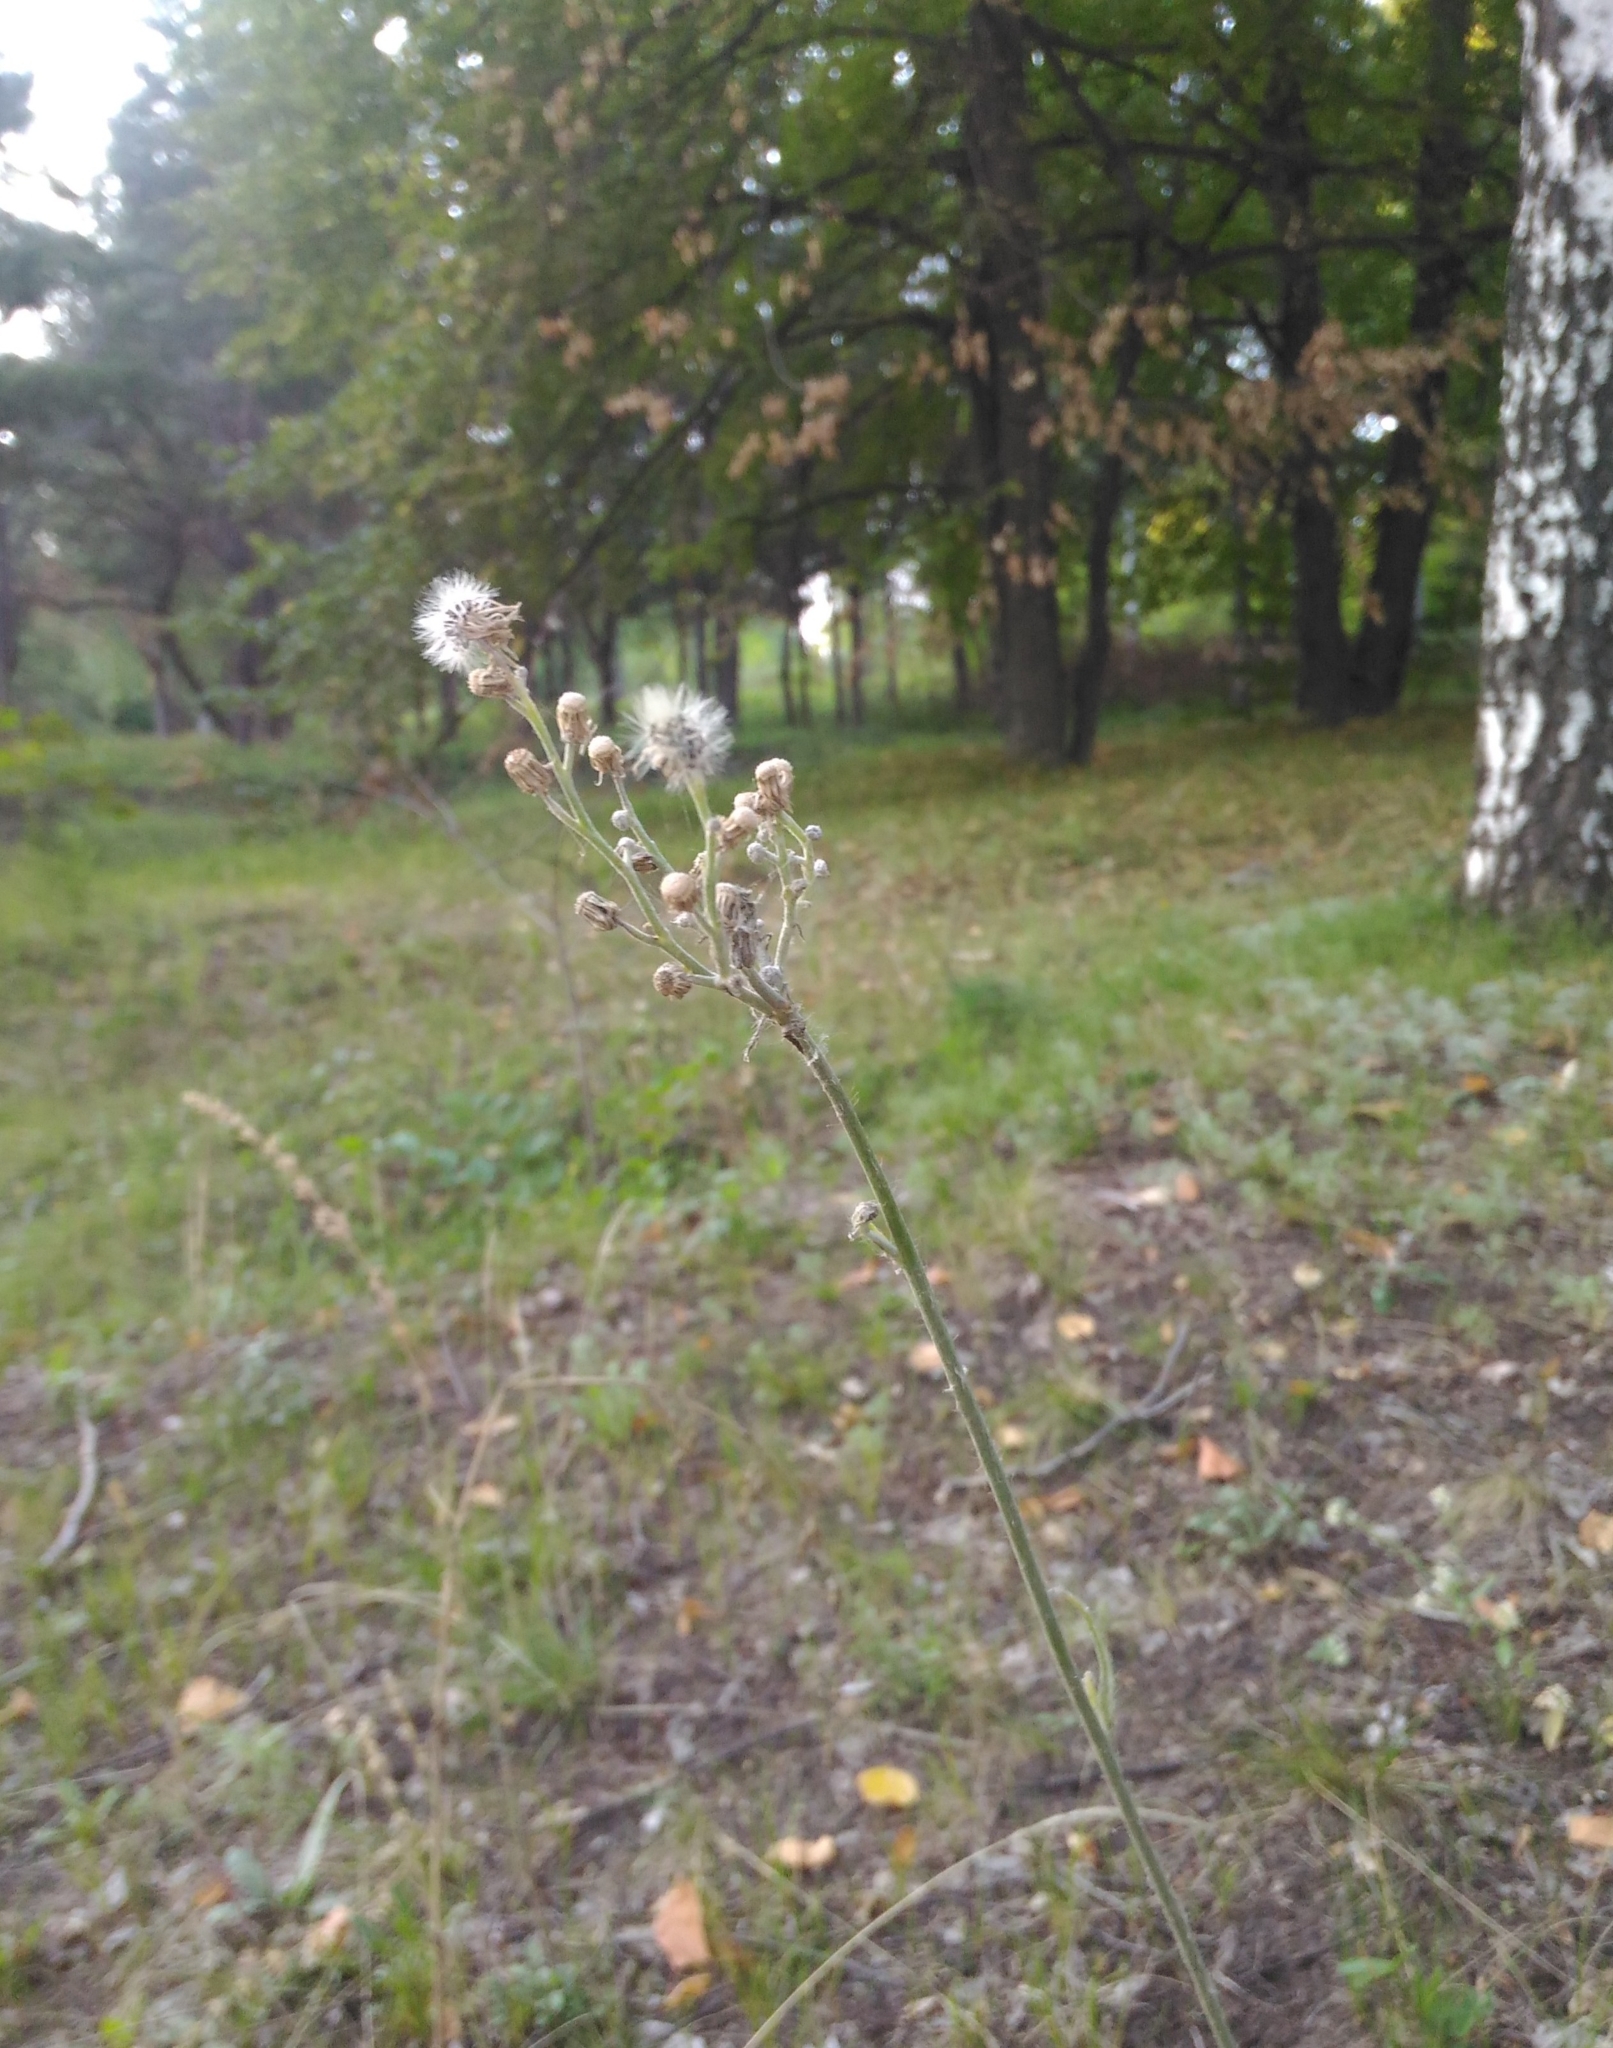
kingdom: Plantae
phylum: Tracheophyta
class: Magnoliopsida
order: Asterales
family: Asteraceae
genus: Pilosella
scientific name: Pilosella
